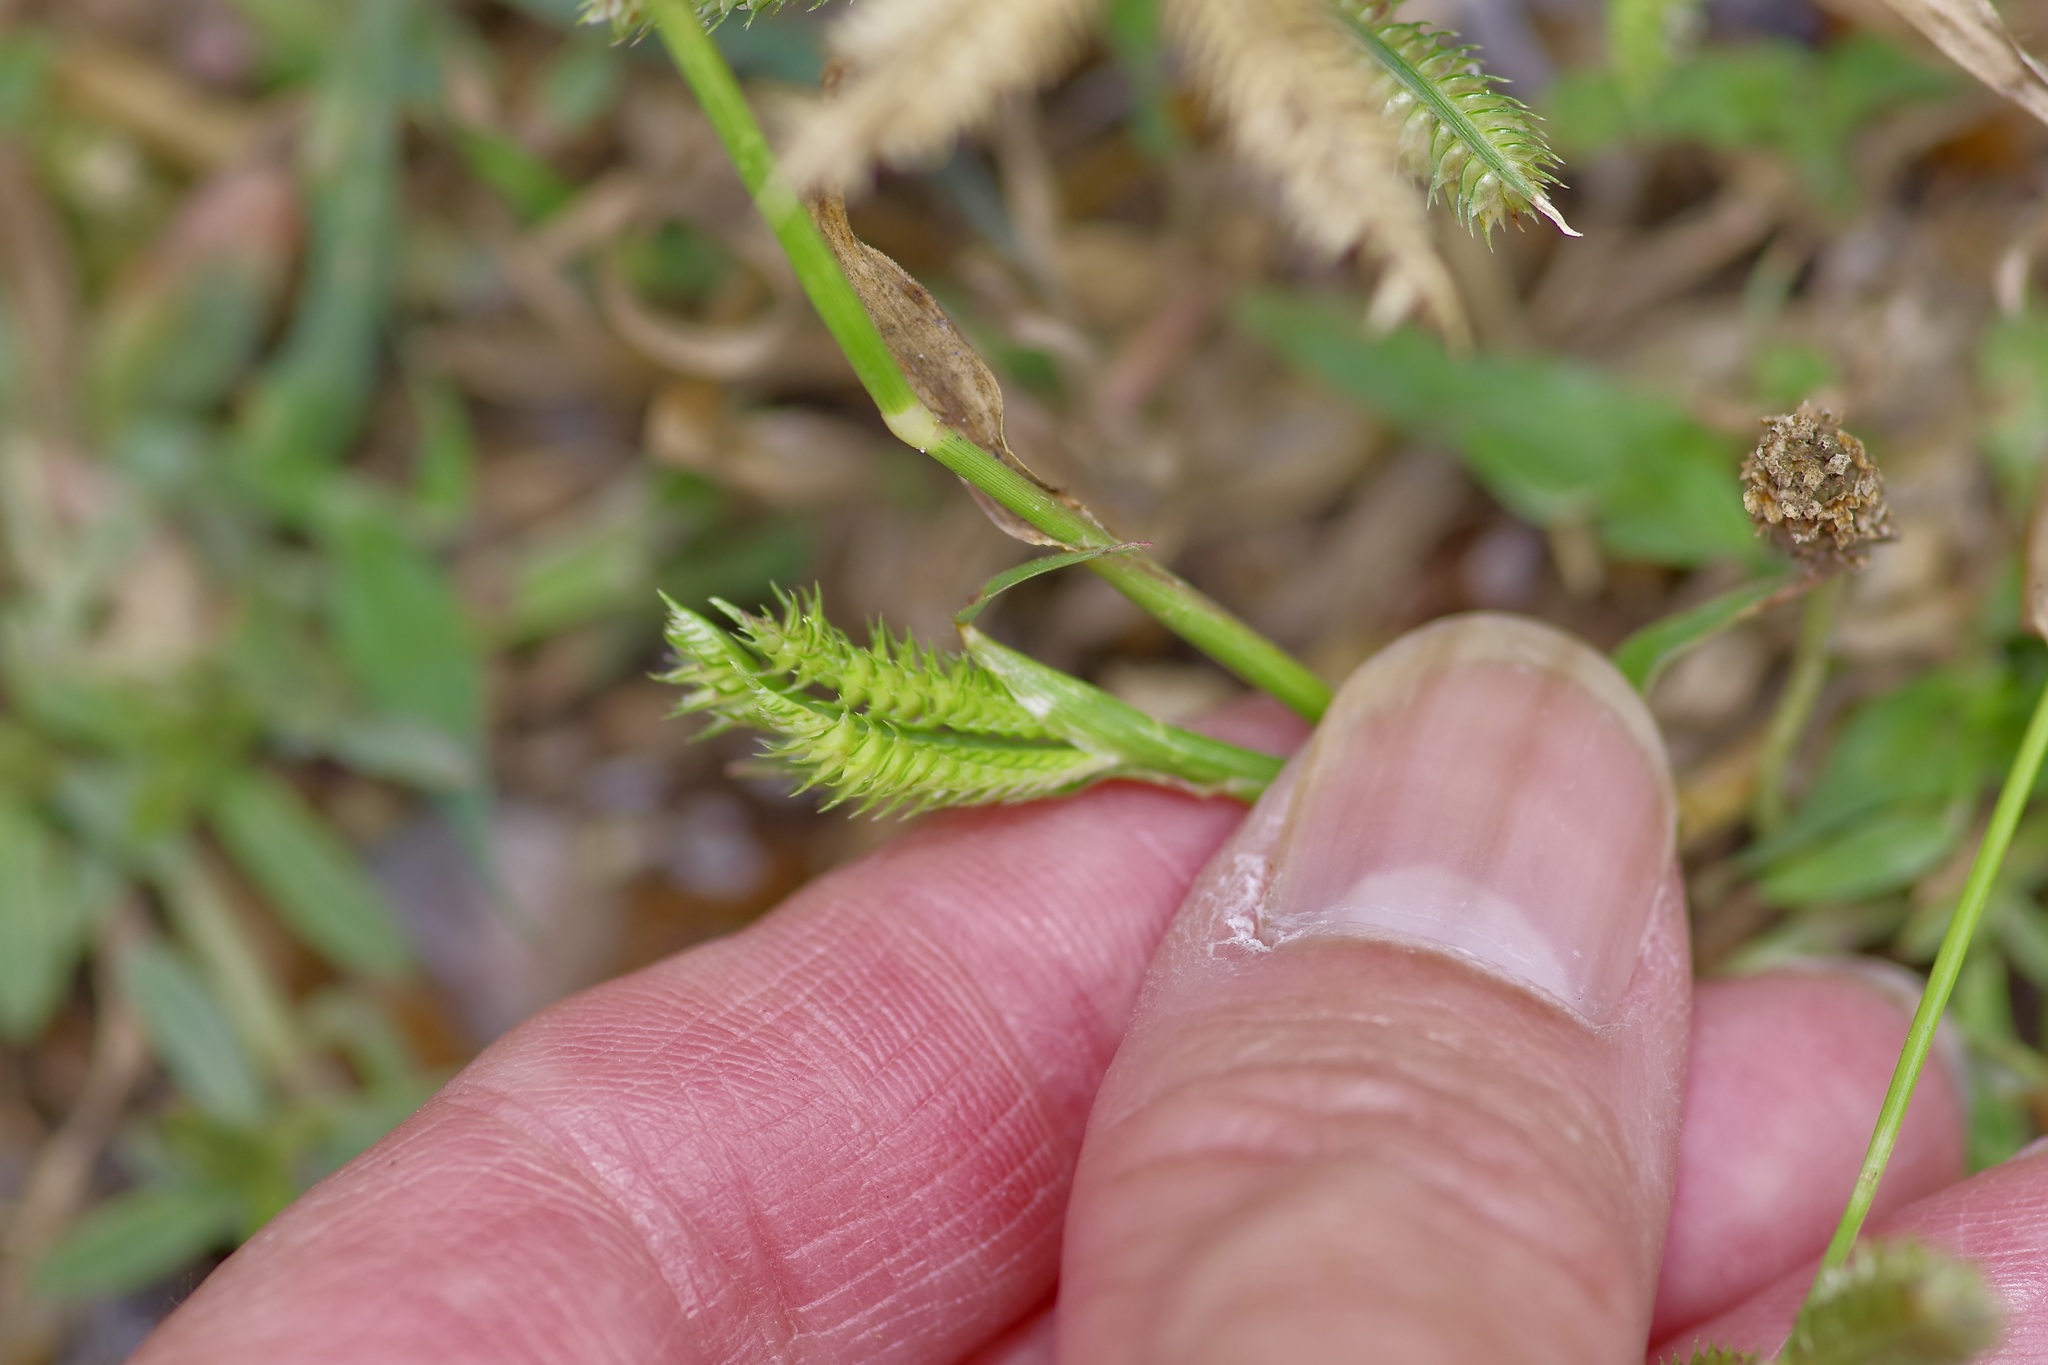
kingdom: Plantae
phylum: Tracheophyta
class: Liliopsida
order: Poales
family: Poaceae
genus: Dactyloctenium
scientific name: Dactyloctenium aegyptium
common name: Egyptian grass
